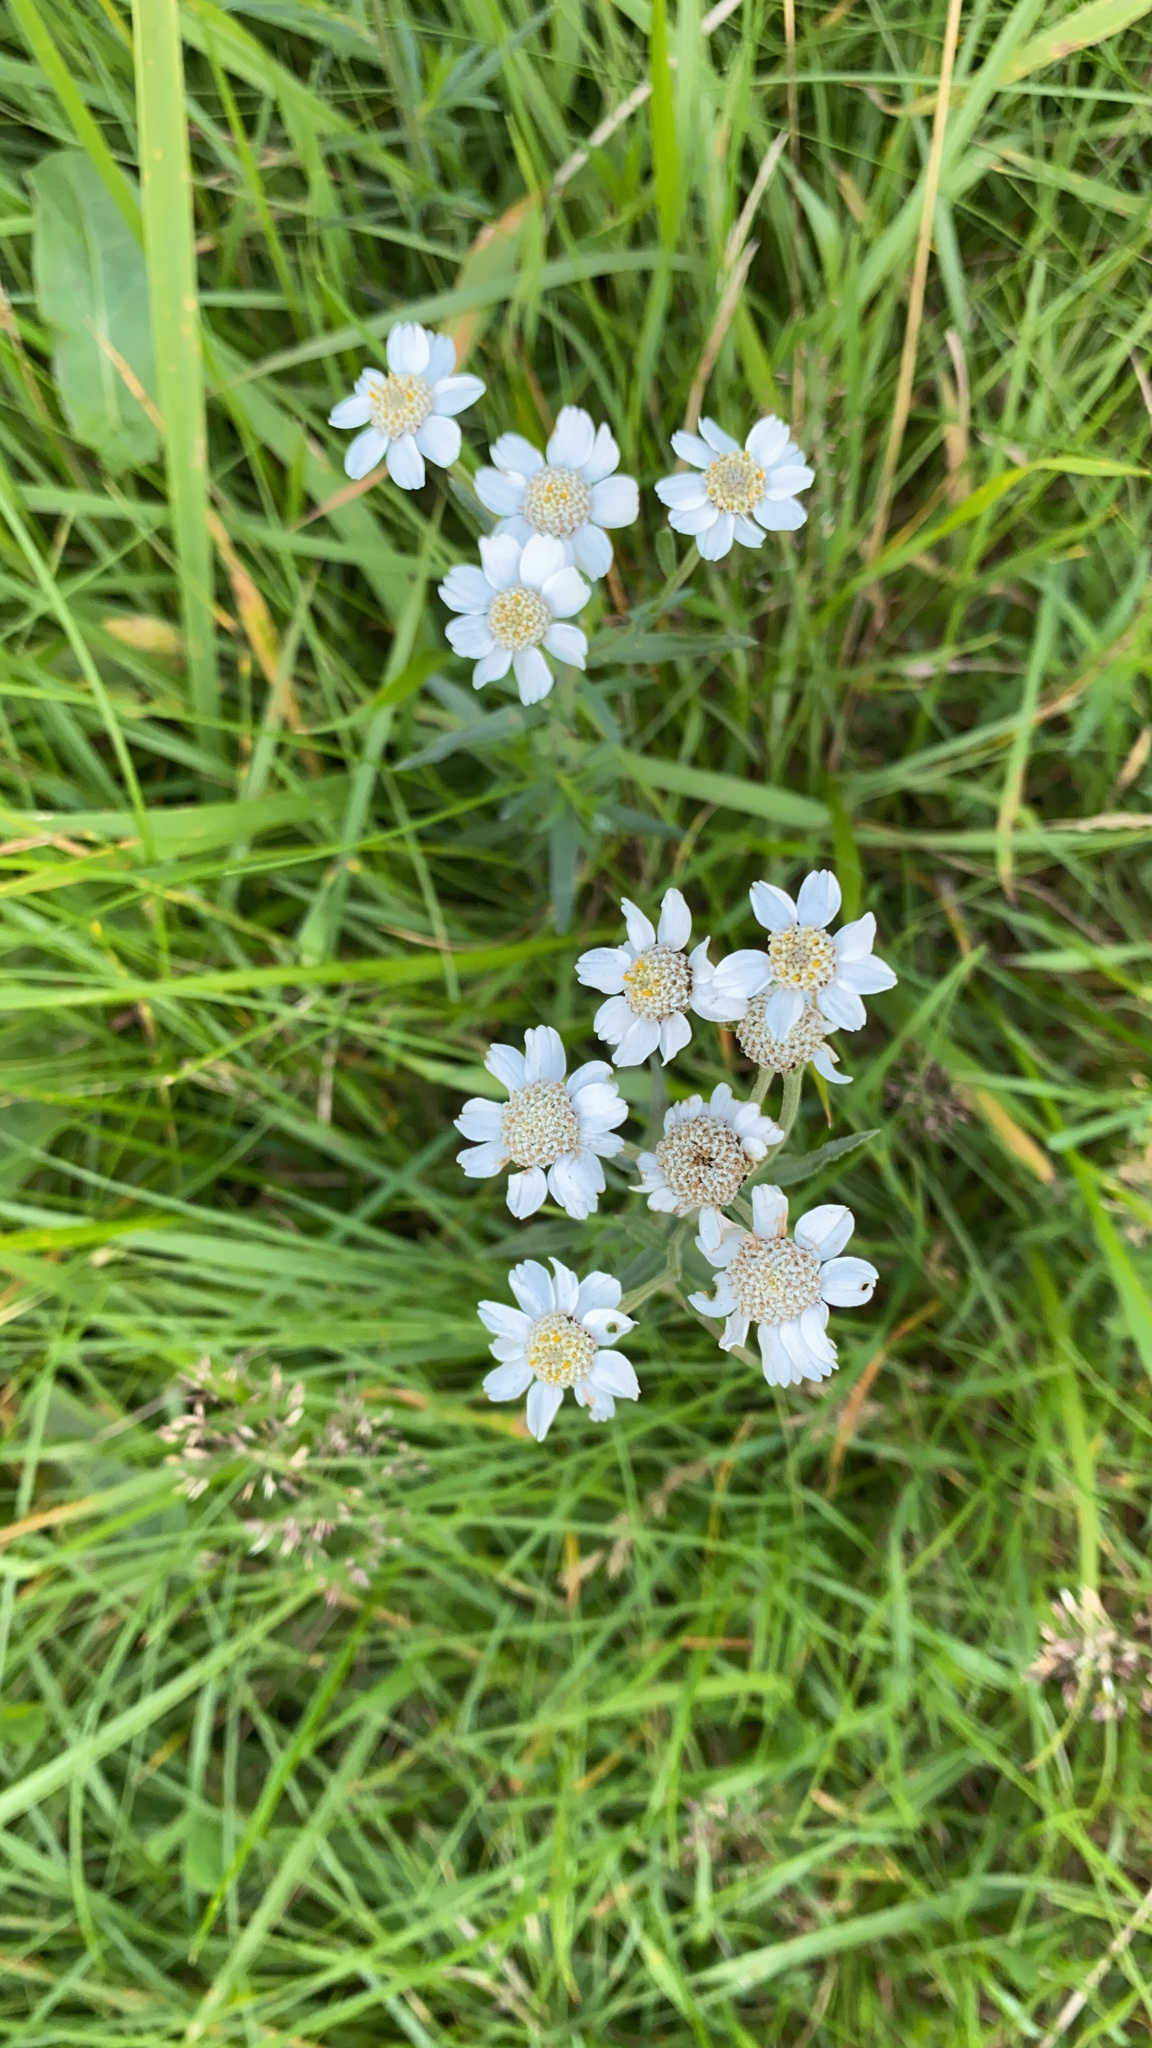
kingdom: Plantae
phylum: Tracheophyta
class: Magnoliopsida
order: Asterales
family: Asteraceae
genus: Achillea
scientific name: Achillea ptarmica
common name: Sneezeweed
